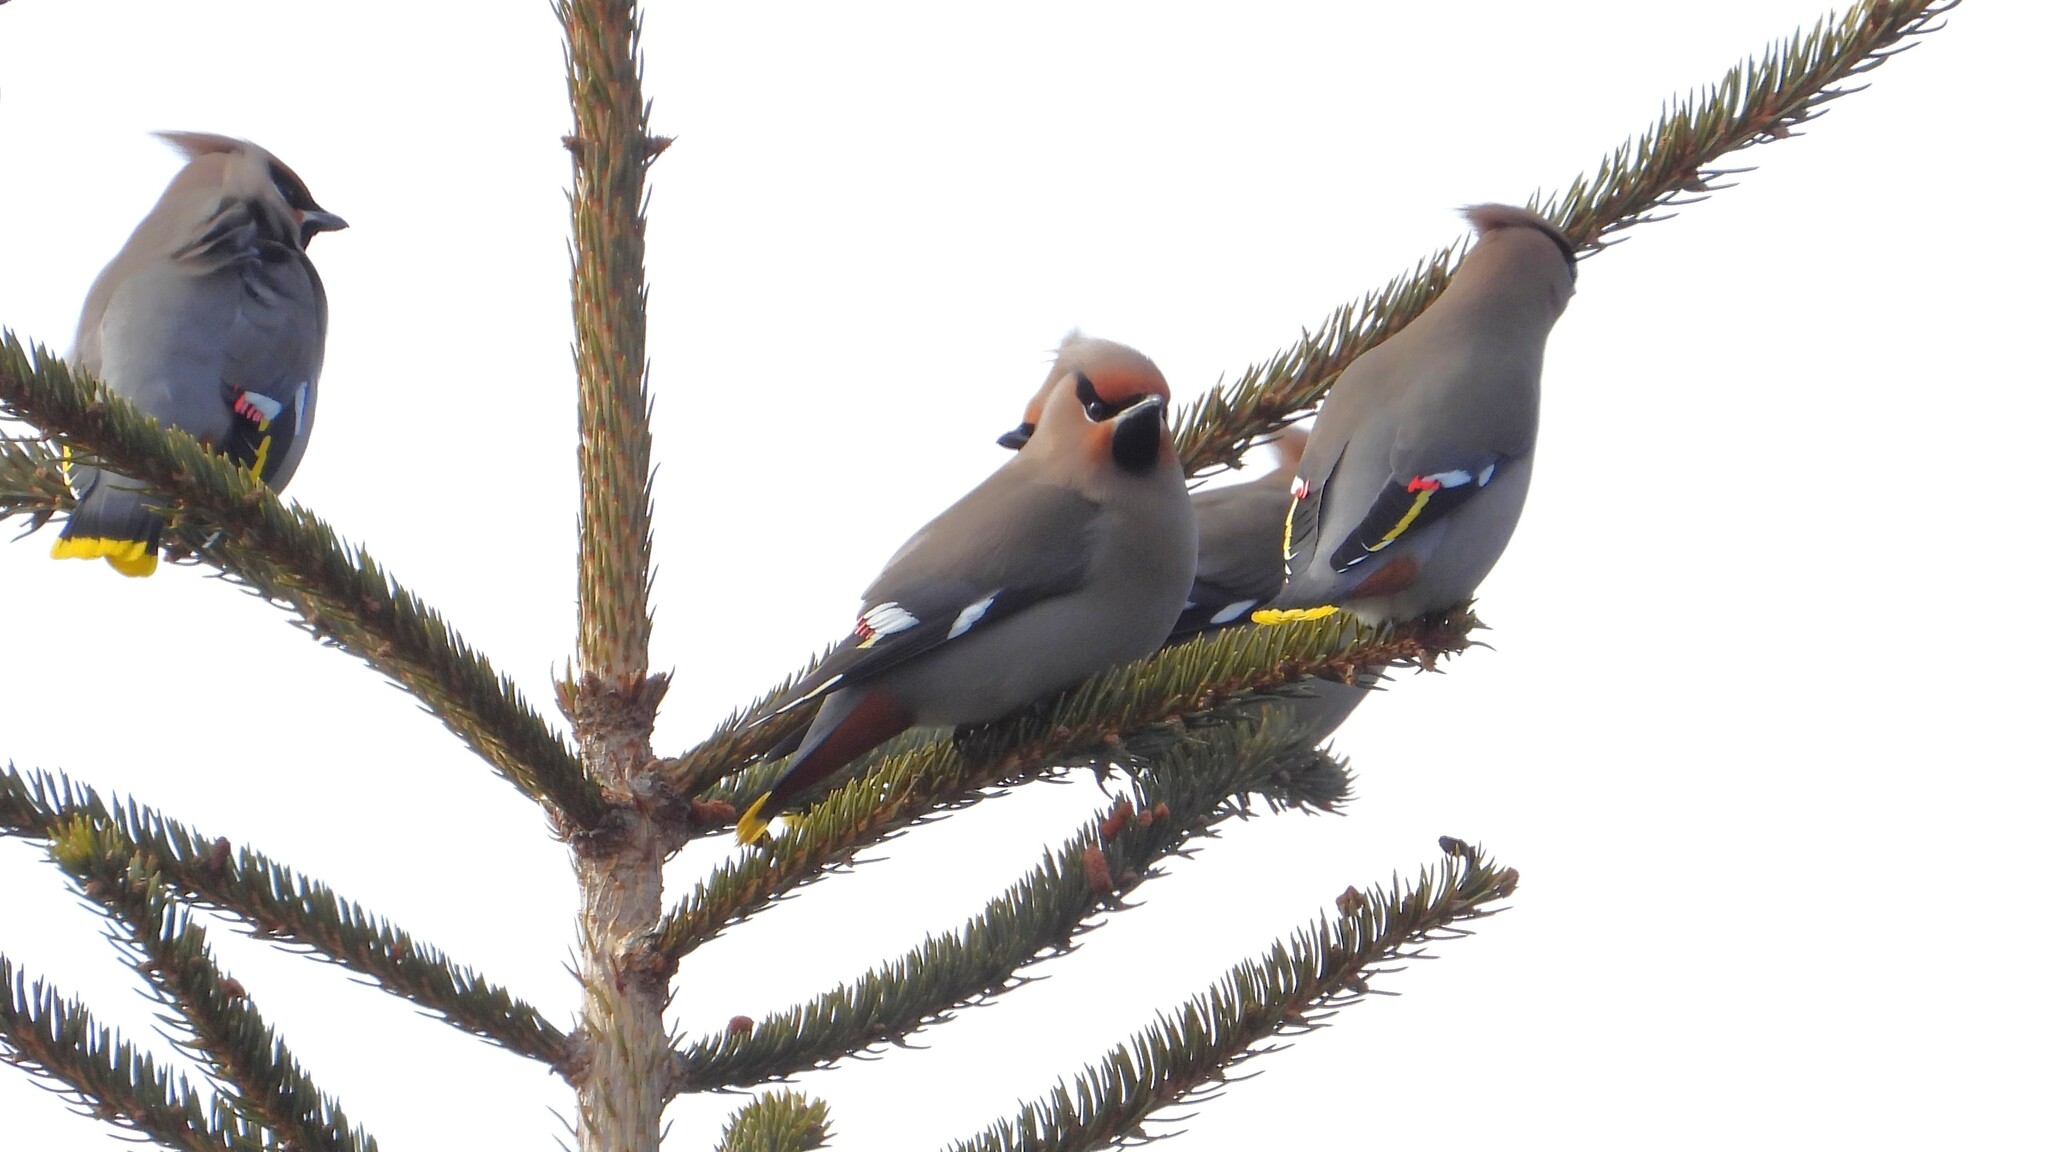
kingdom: Animalia
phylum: Chordata
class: Aves
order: Passeriformes
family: Bombycillidae
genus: Bombycilla
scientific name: Bombycilla garrulus
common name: Bohemian waxwing
